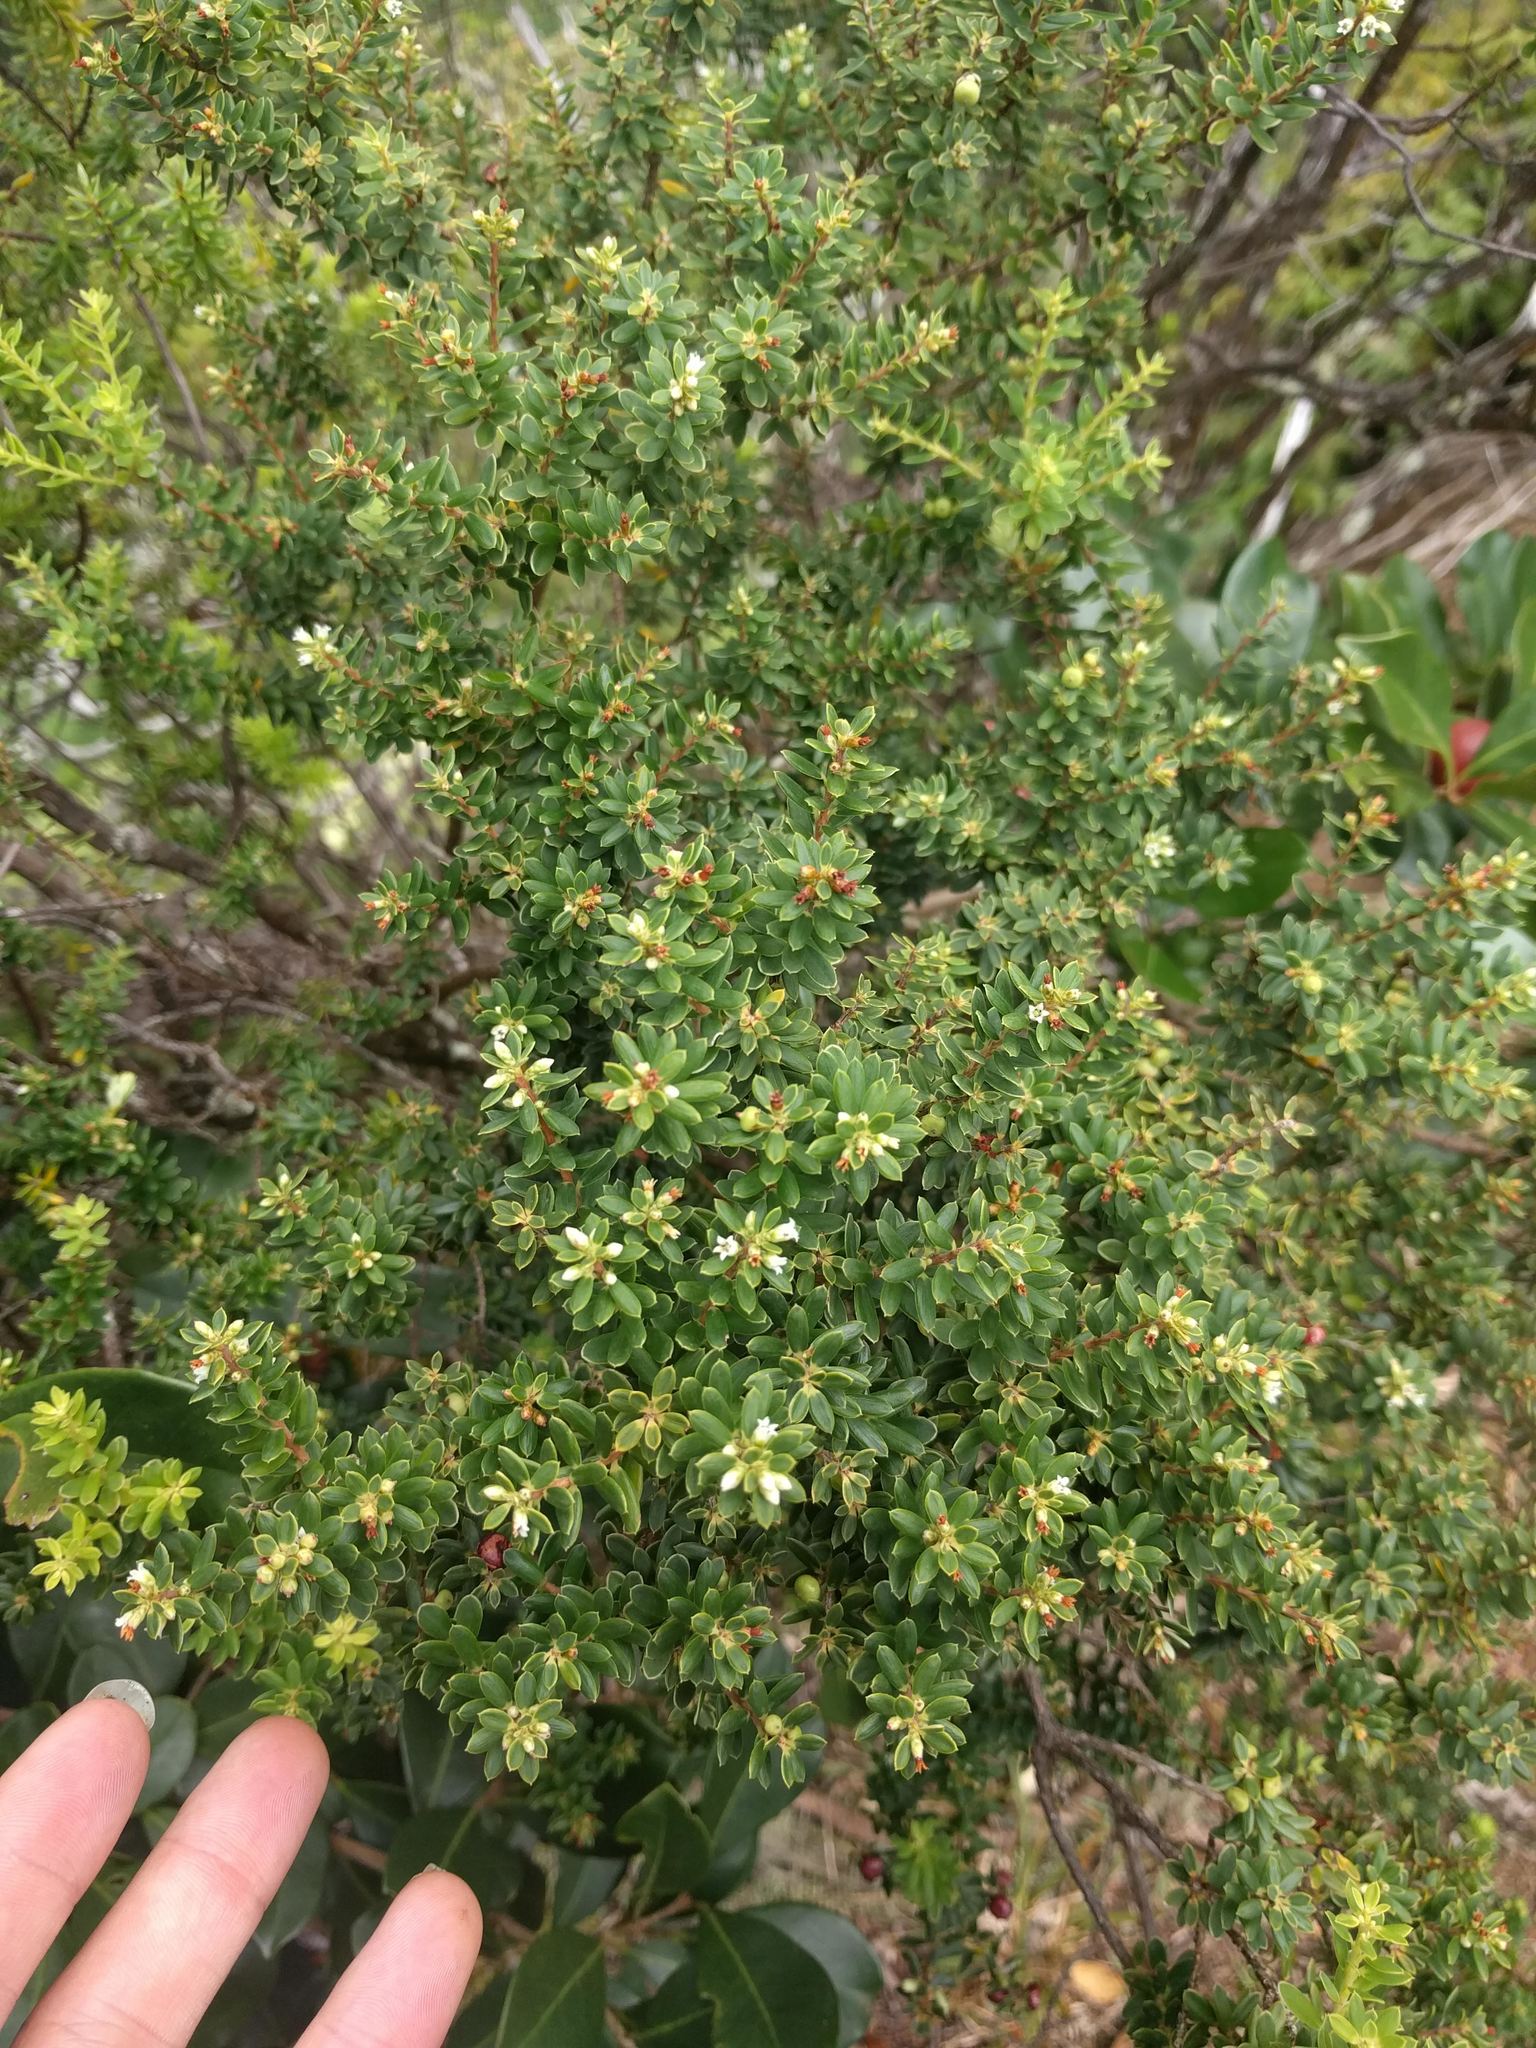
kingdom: Plantae
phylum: Tracheophyta
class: Magnoliopsida
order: Ericales
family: Ericaceae
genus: Leptecophylla
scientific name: Leptecophylla tameiameiae
